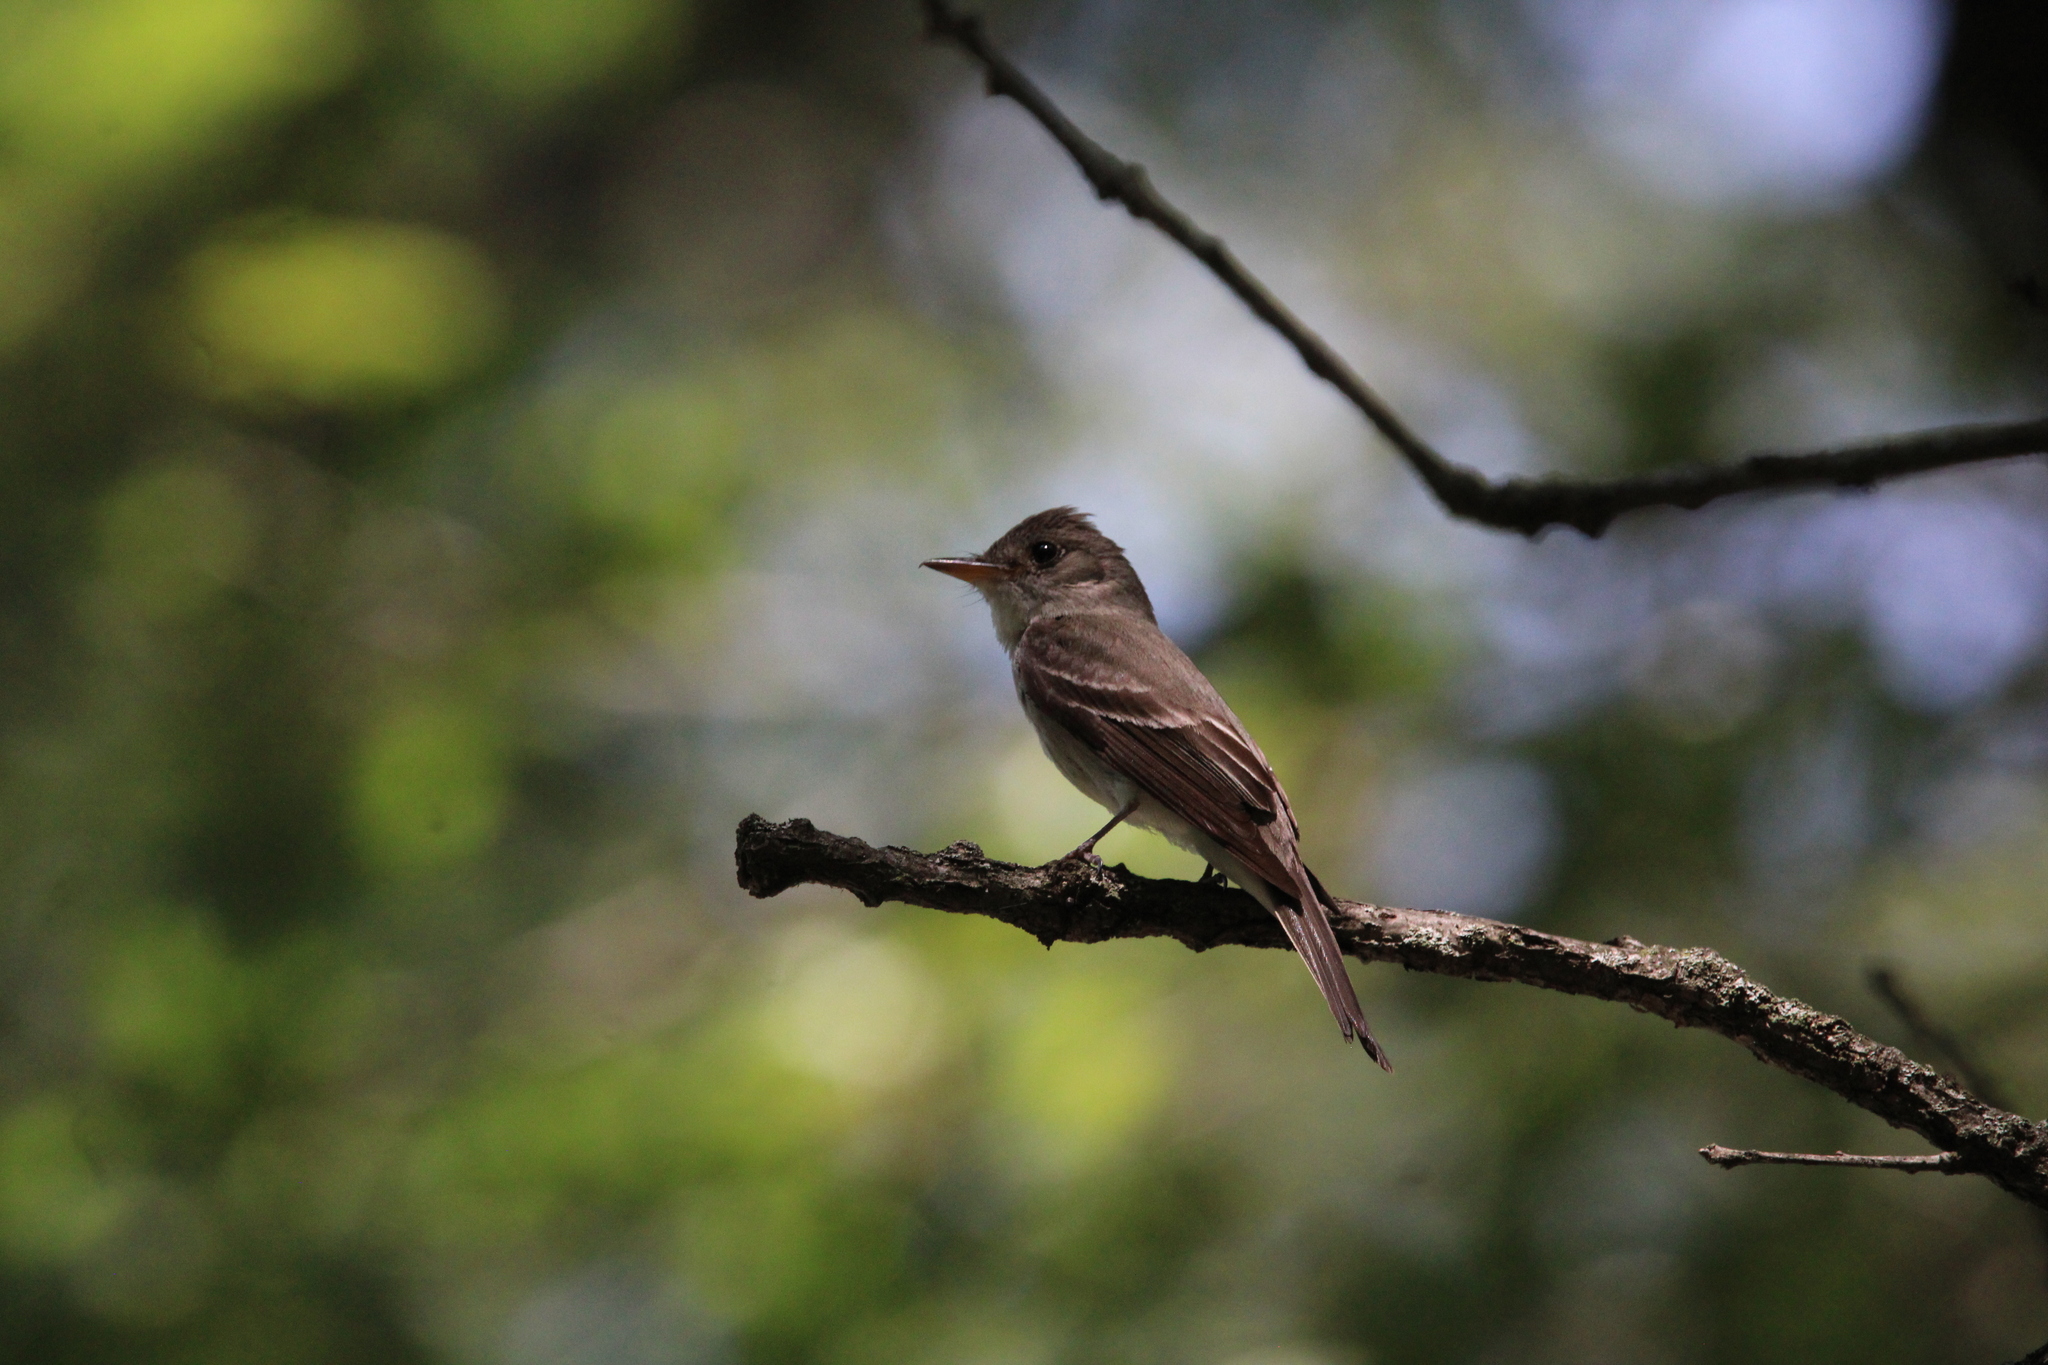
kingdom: Animalia
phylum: Chordata
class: Aves
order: Passeriformes
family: Tyrannidae
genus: Contopus
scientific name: Contopus virens
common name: Eastern wood-pewee
